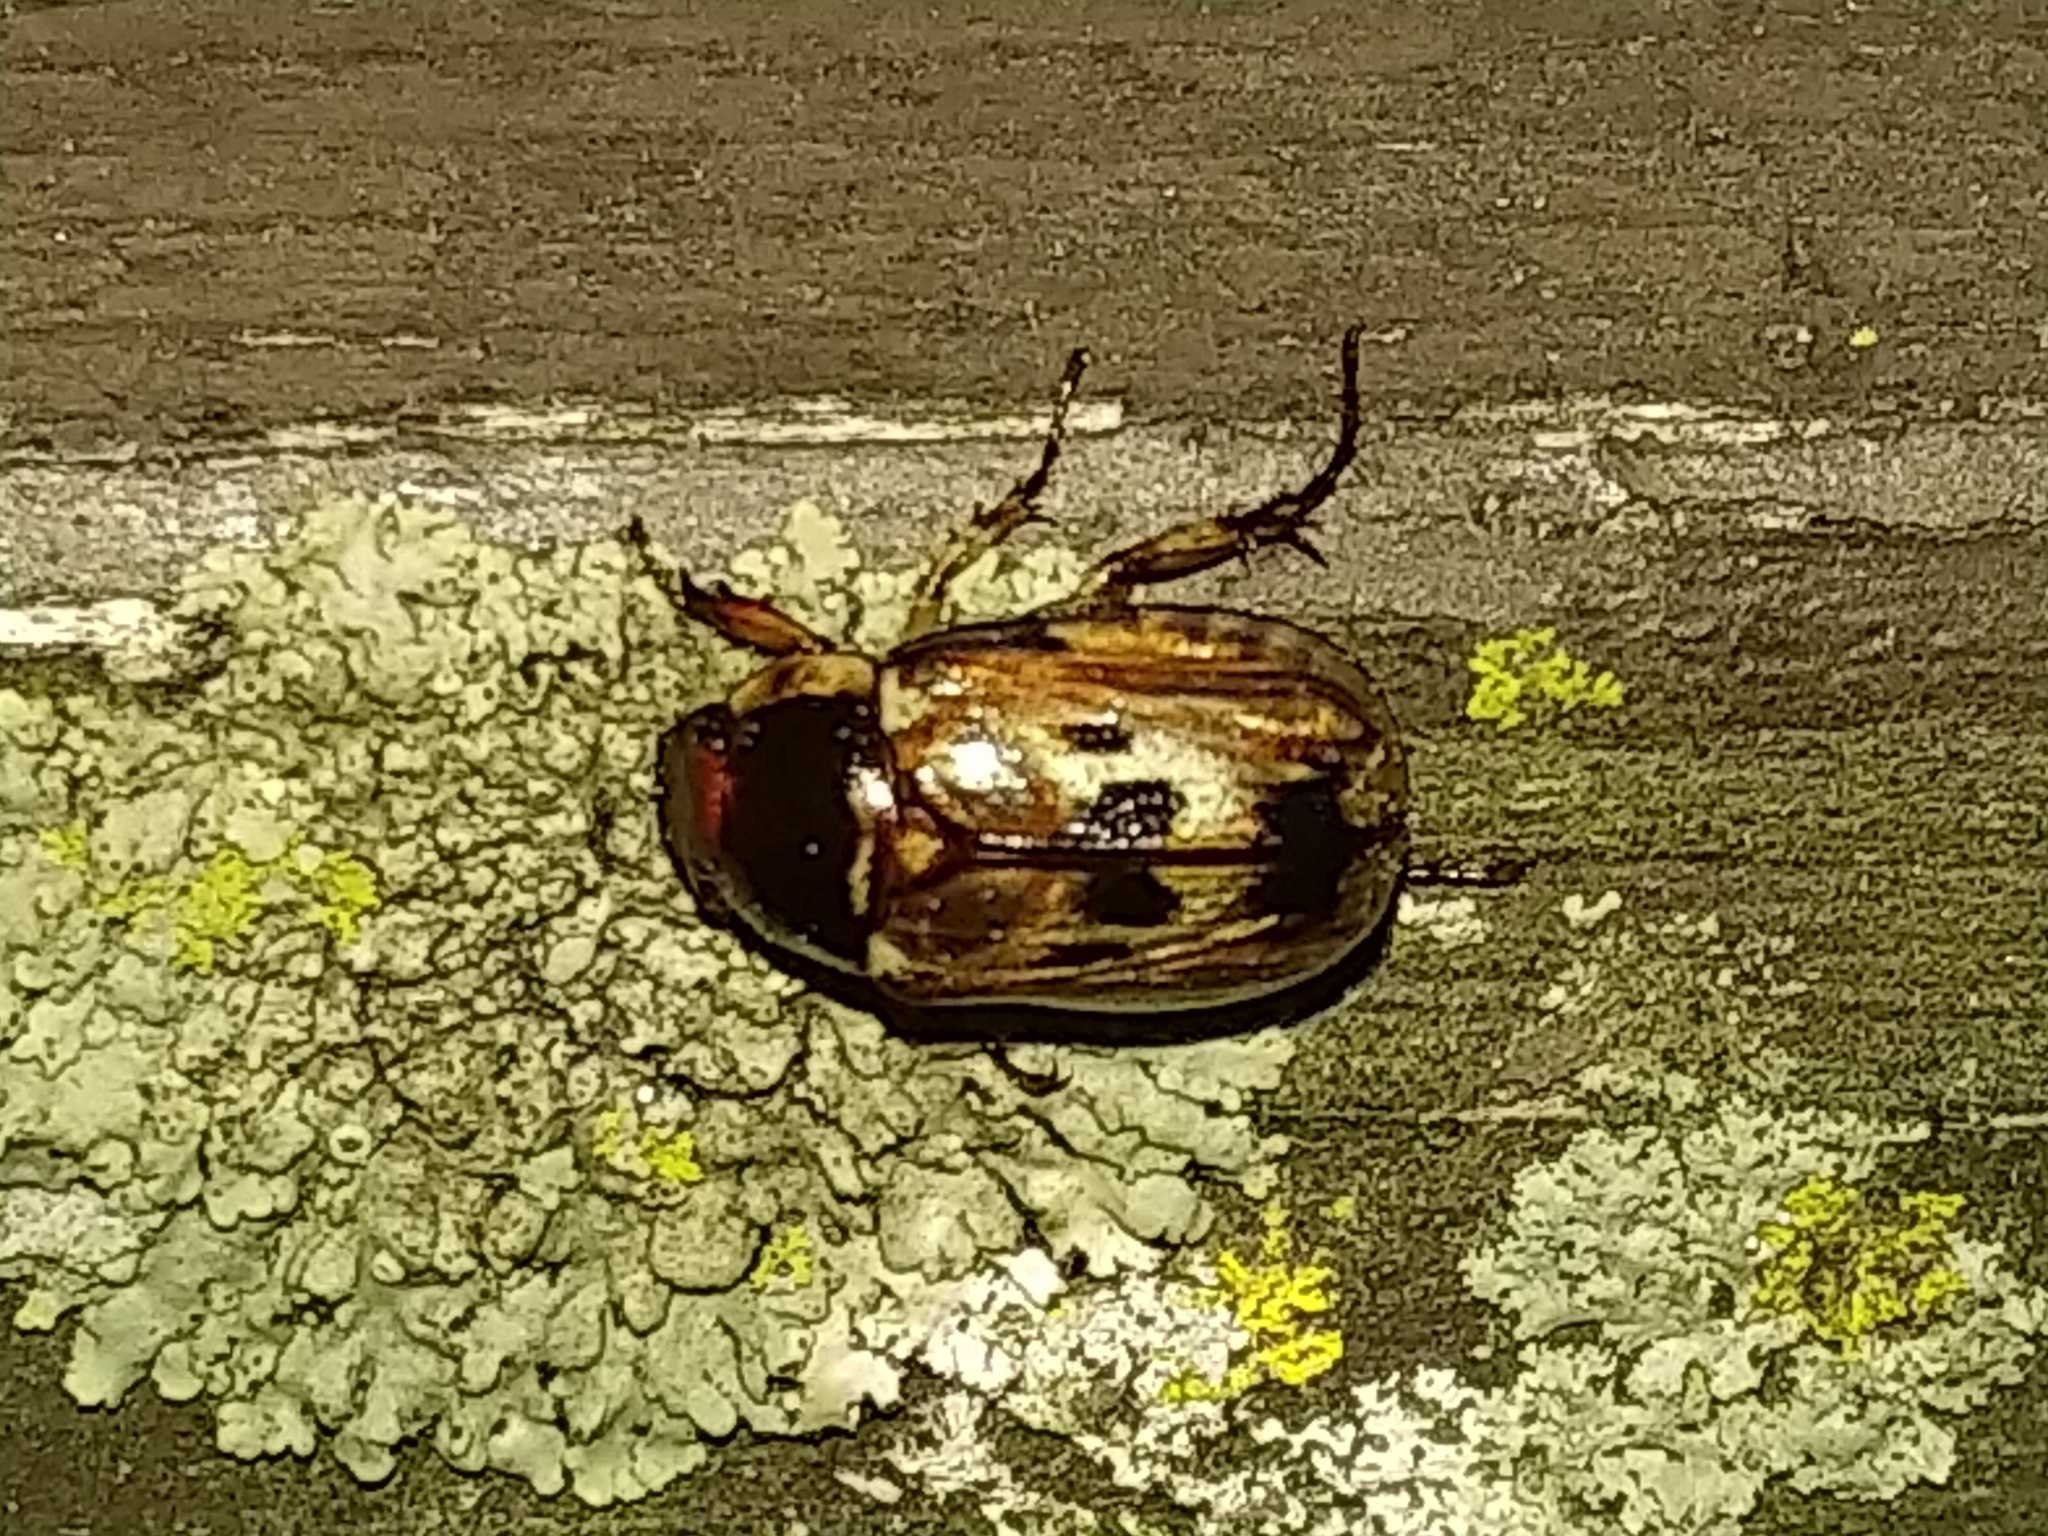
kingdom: Animalia
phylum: Arthropoda
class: Insecta
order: Coleoptera
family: Scarabaeidae
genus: Exomala
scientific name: Exomala orientalis
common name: Oriental beetle
